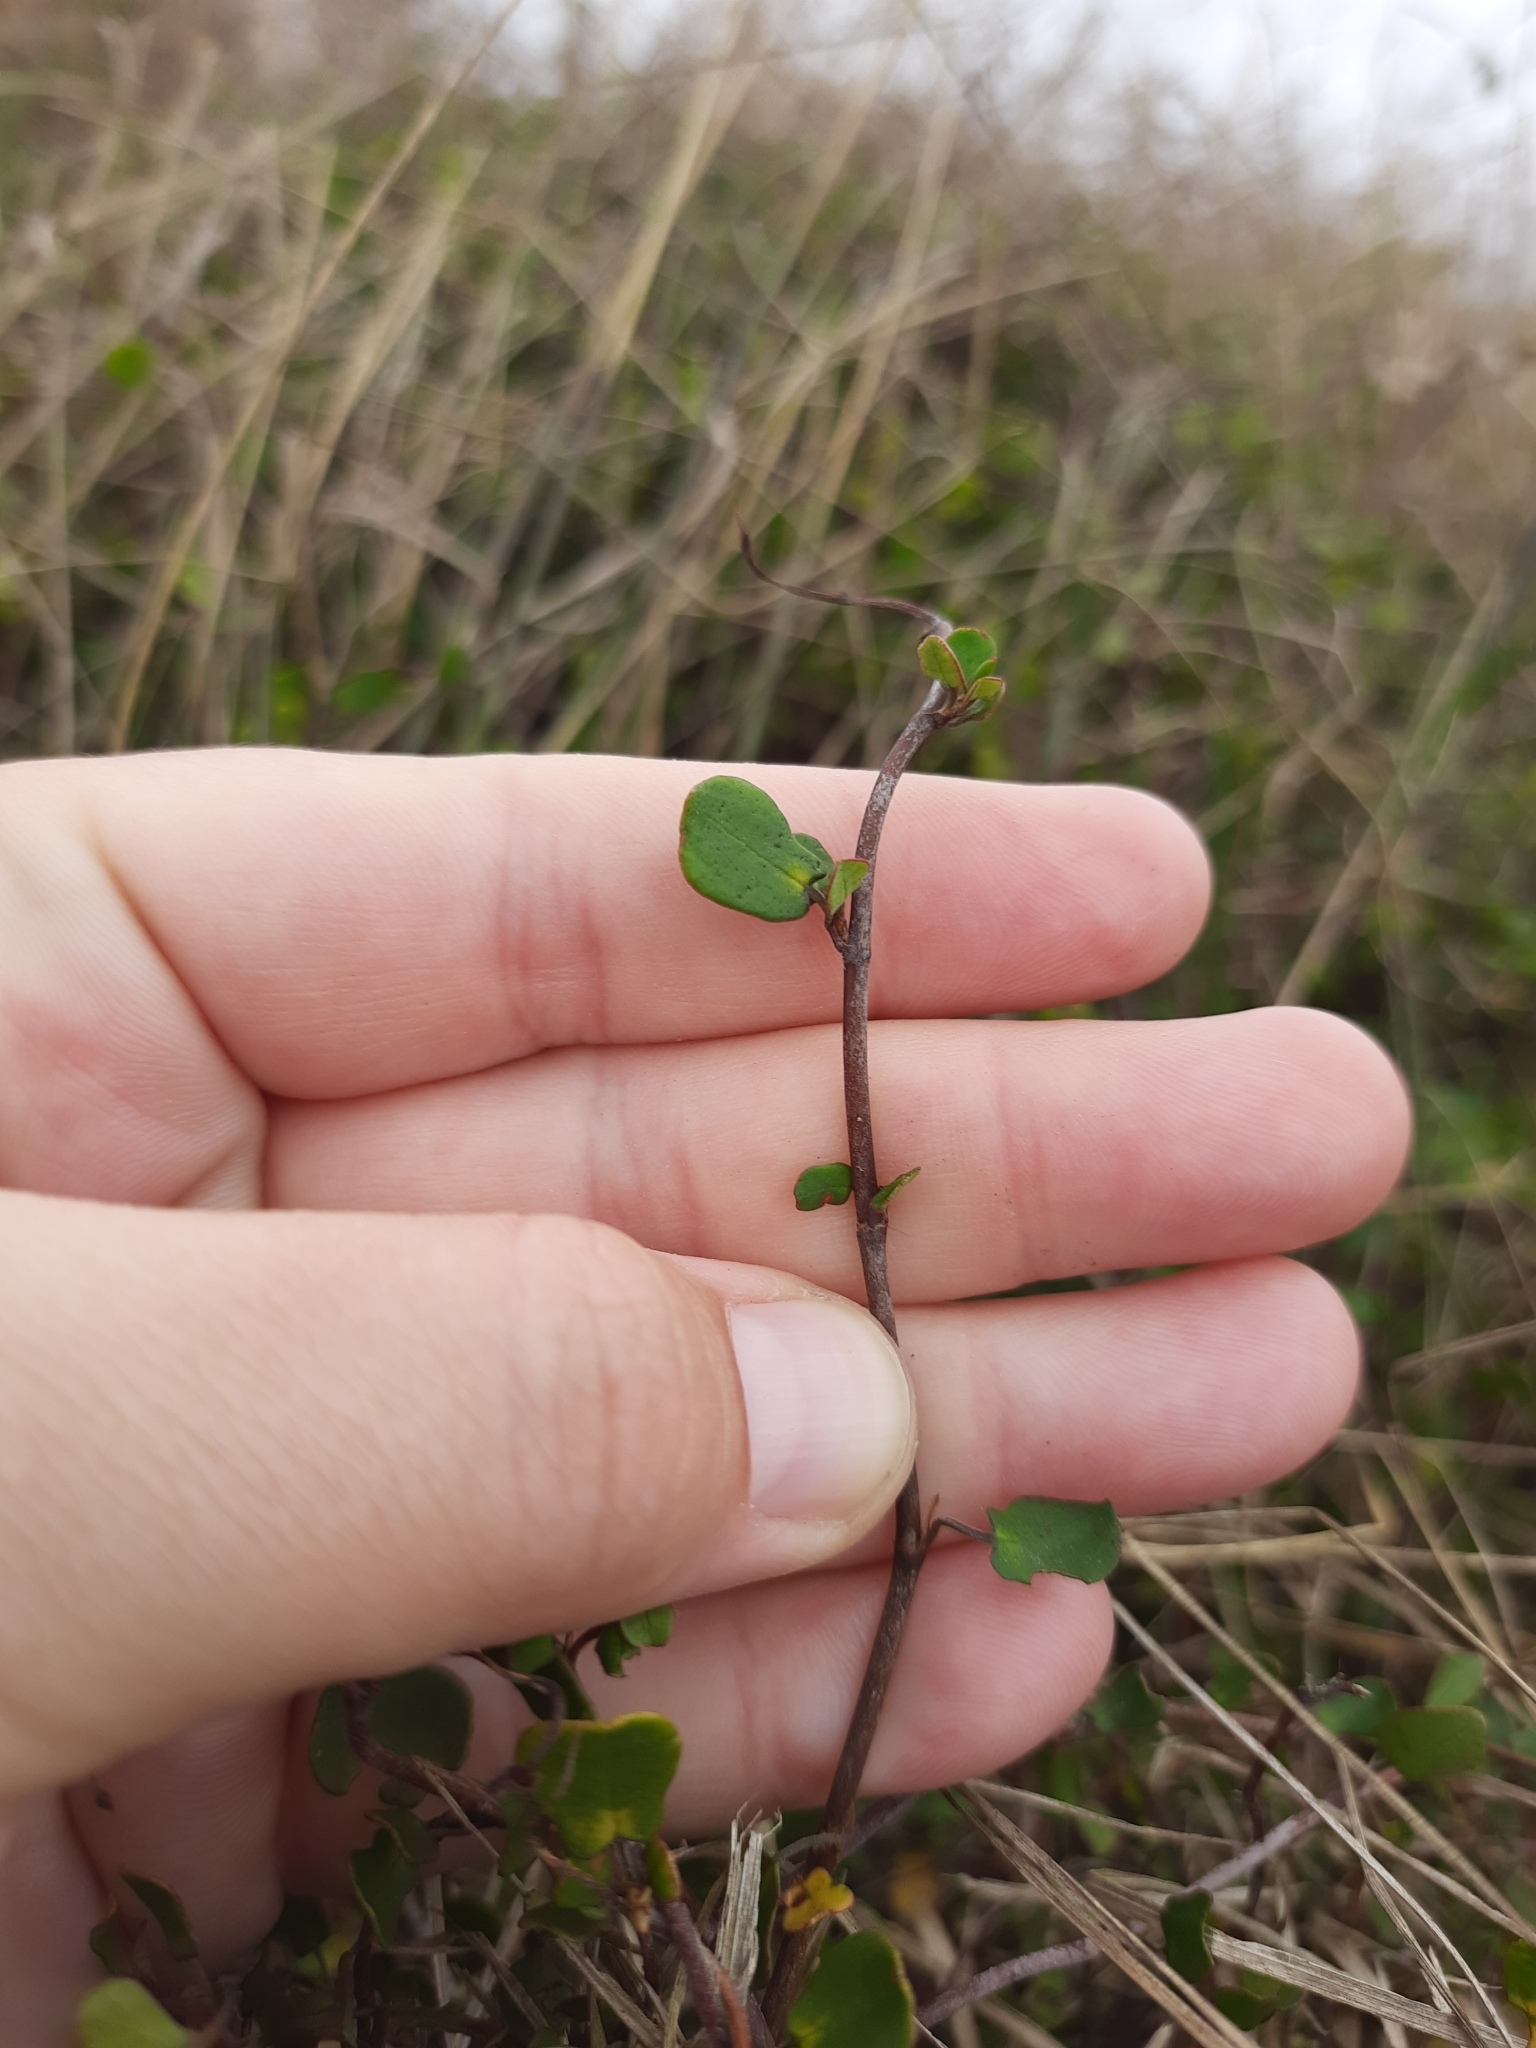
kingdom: Plantae
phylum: Tracheophyta
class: Magnoliopsida
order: Caryophyllales
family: Polygonaceae
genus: Muehlenbeckia
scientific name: Muehlenbeckia complexa
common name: Wireplant
